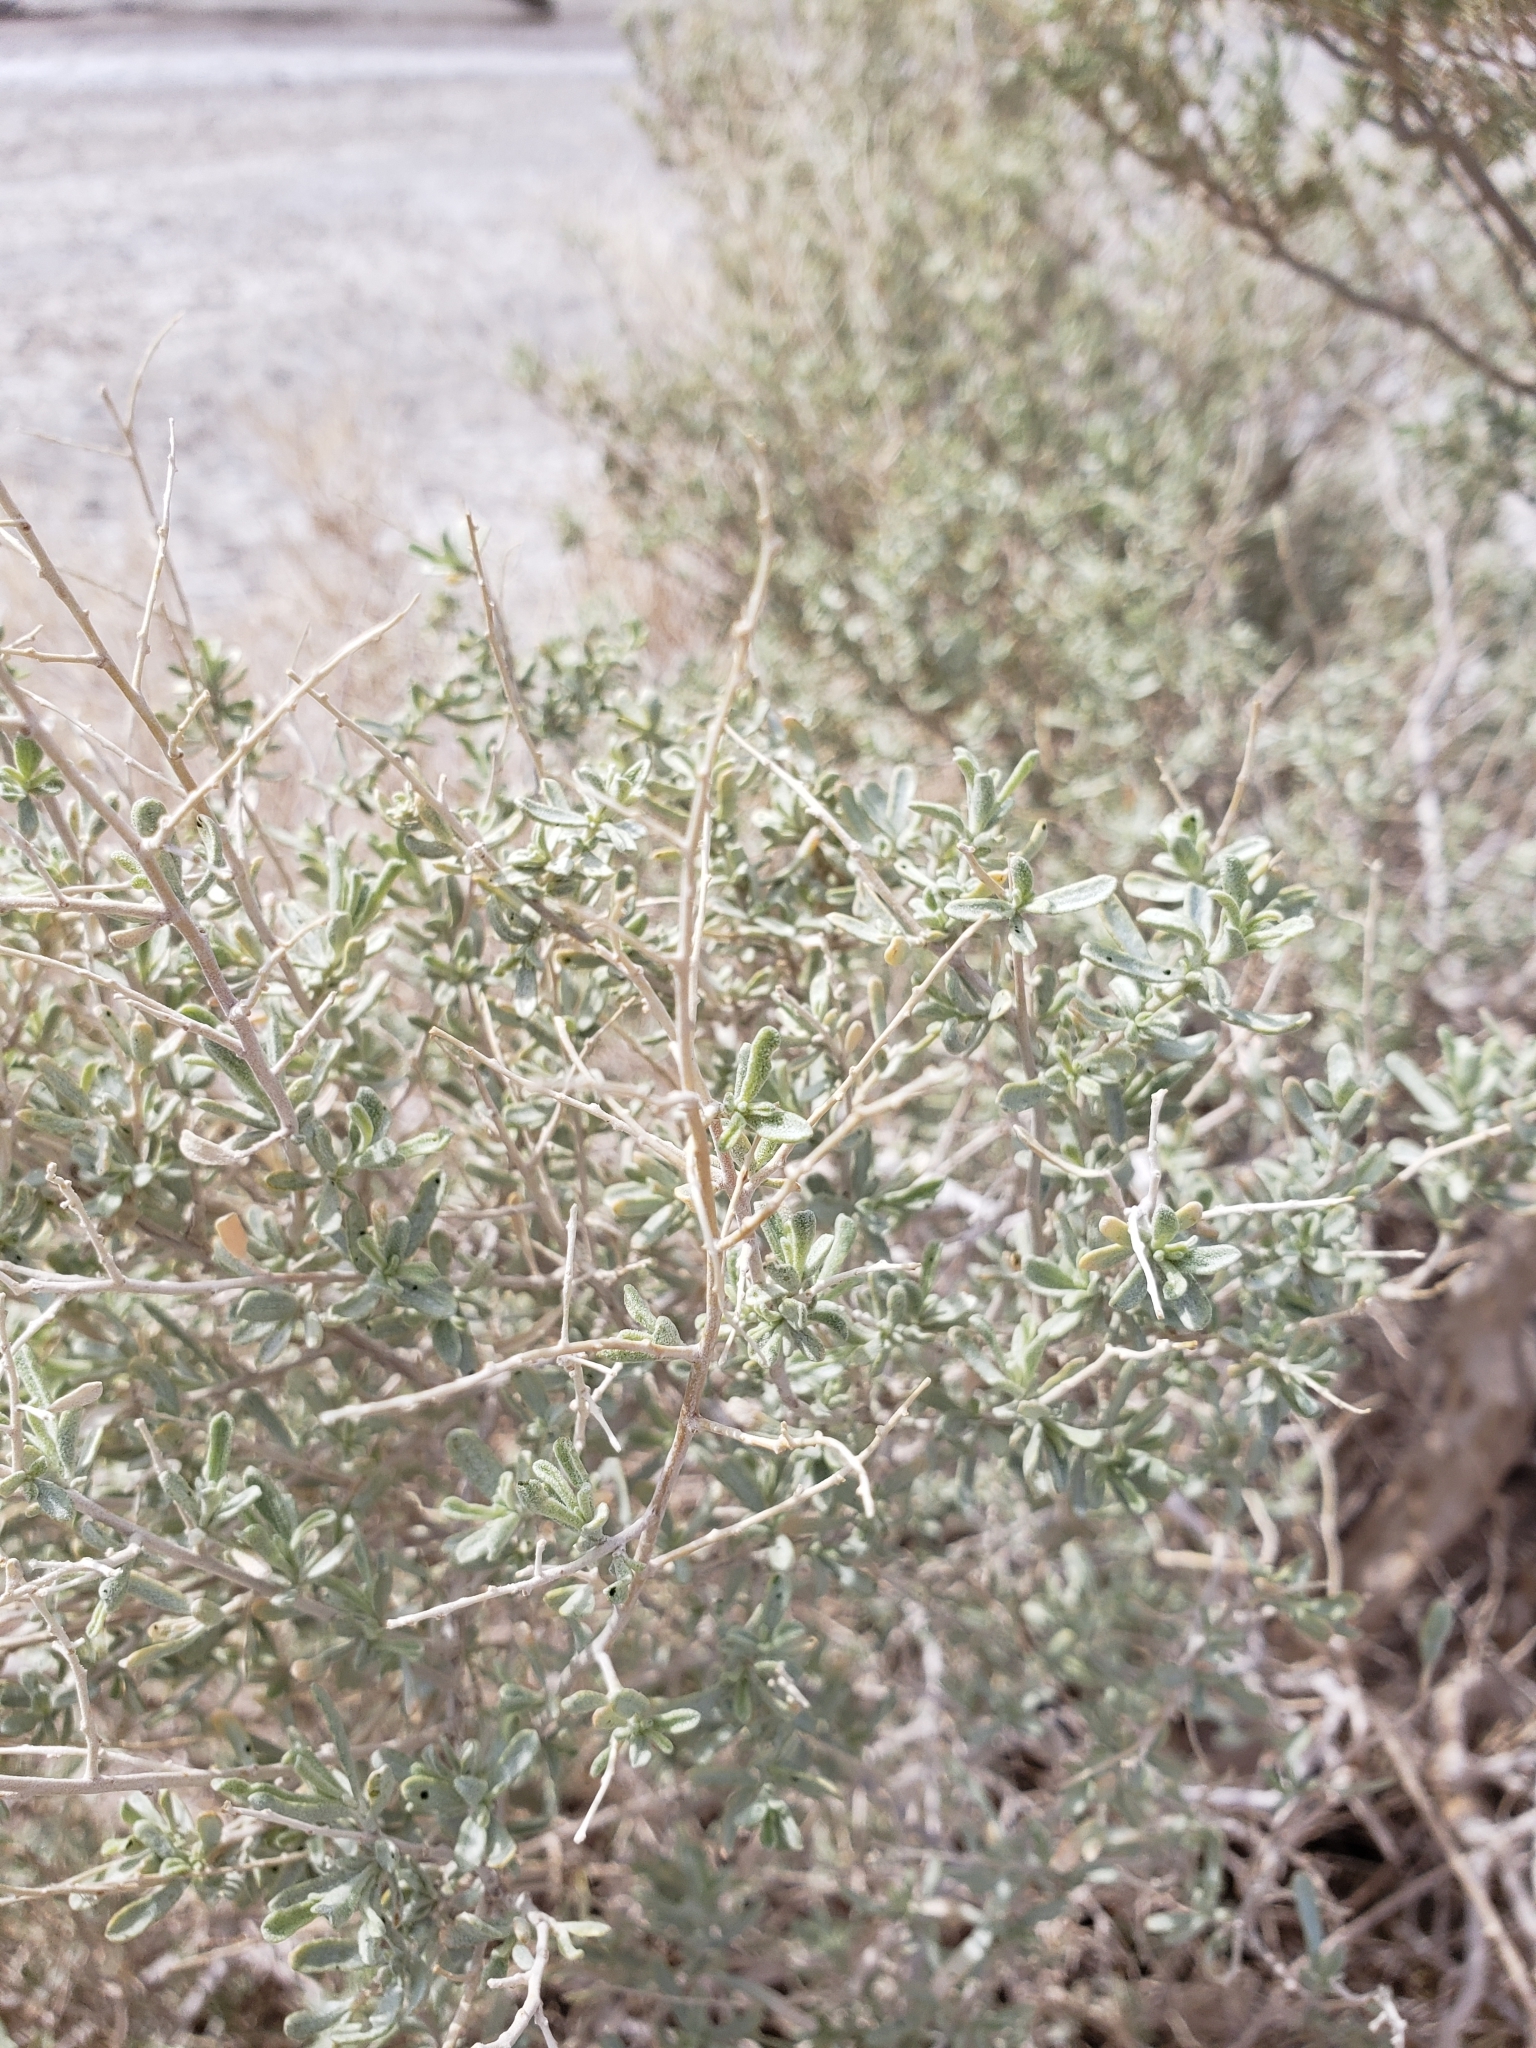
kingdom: Plantae
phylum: Tracheophyta
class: Magnoliopsida
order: Caryophyllales
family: Amaranthaceae
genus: Atriplex
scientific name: Atriplex canescens
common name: Four-wing saltbush
